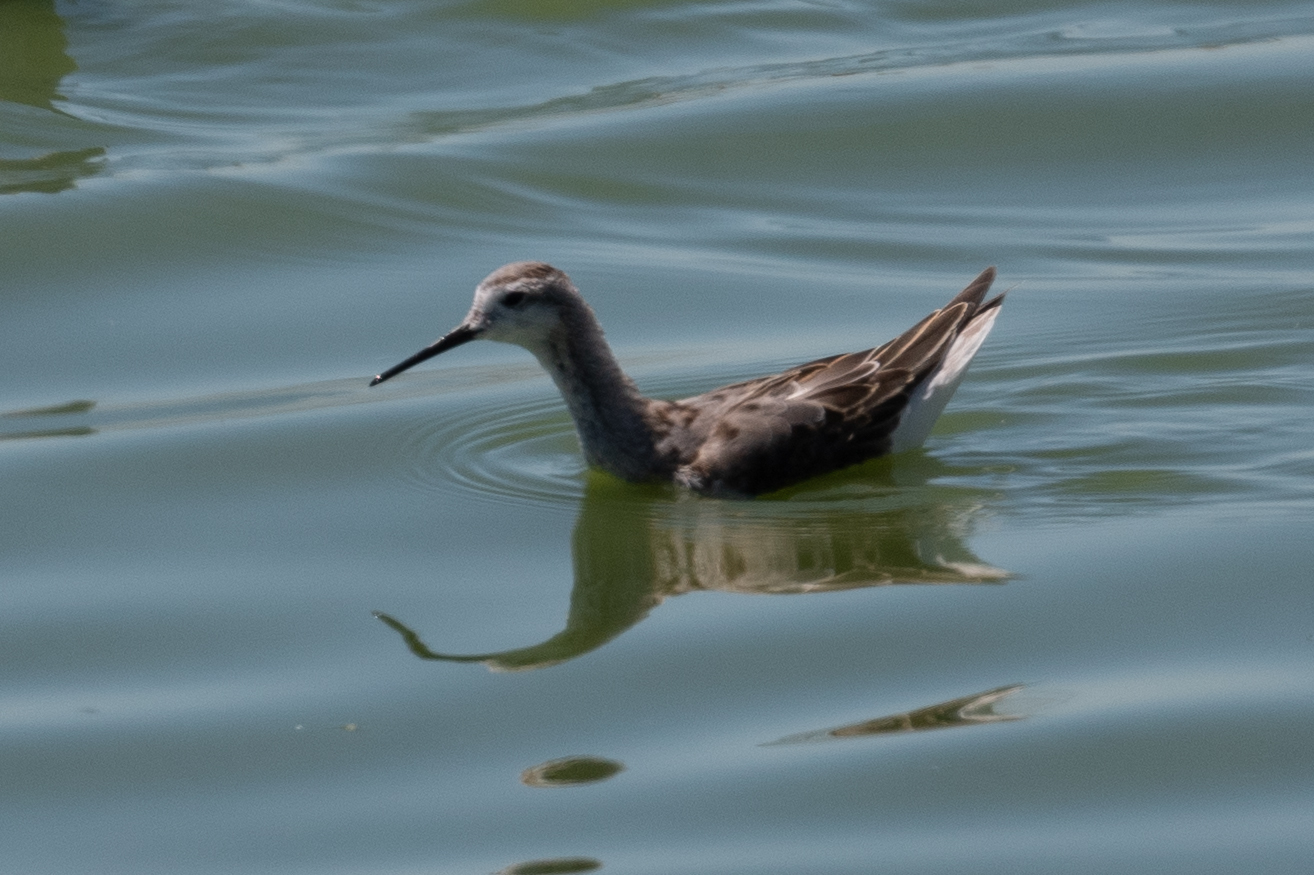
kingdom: Animalia
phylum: Chordata
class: Aves
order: Charadriiformes
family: Scolopacidae
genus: Phalaropus
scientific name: Phalaropus tricolor
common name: Wilson's phalarope
